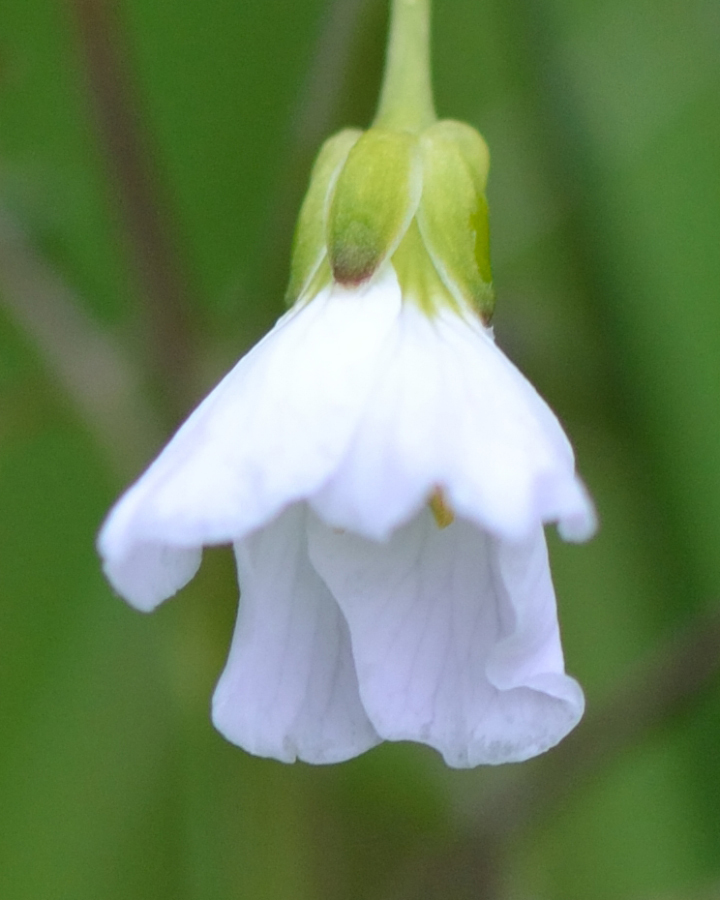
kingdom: Plantae
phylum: Tracheophyta
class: Magnoliopsida
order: Brassicales
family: Brassicaceae
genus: Cardamine
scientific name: Cardamine dentata
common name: Toothed bittercress
